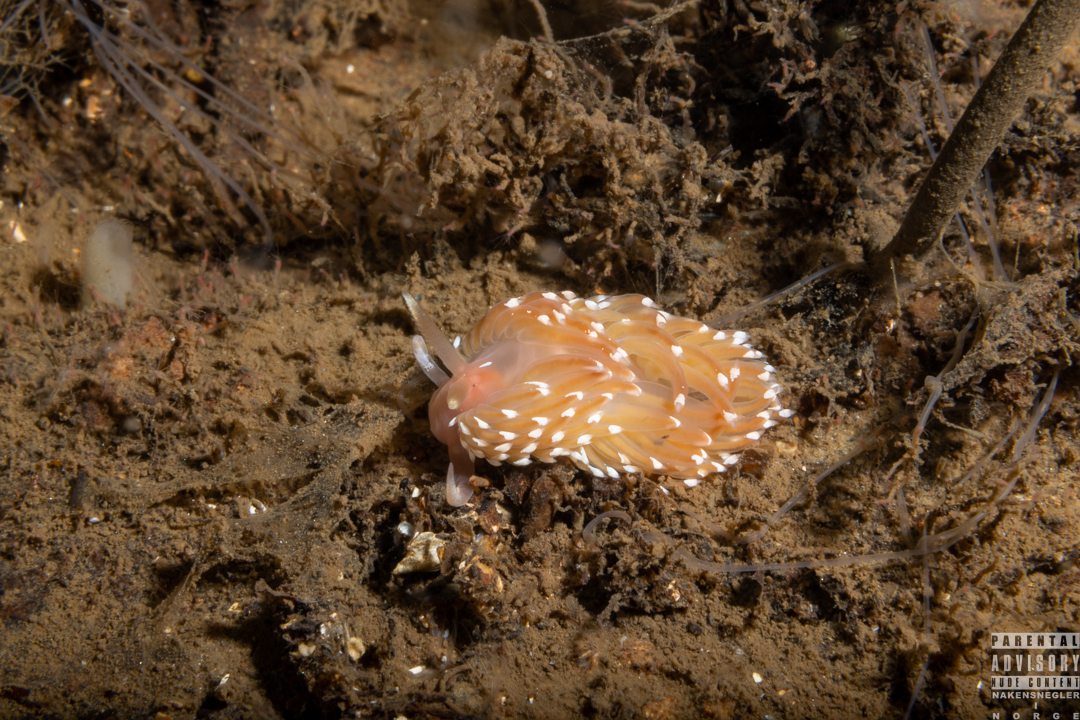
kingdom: Animalia
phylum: Mollusca
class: Gastropoda
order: Nudibranchia
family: Facelinidae
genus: Facelina
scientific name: Facelina bostoniensis
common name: Boston facelina
